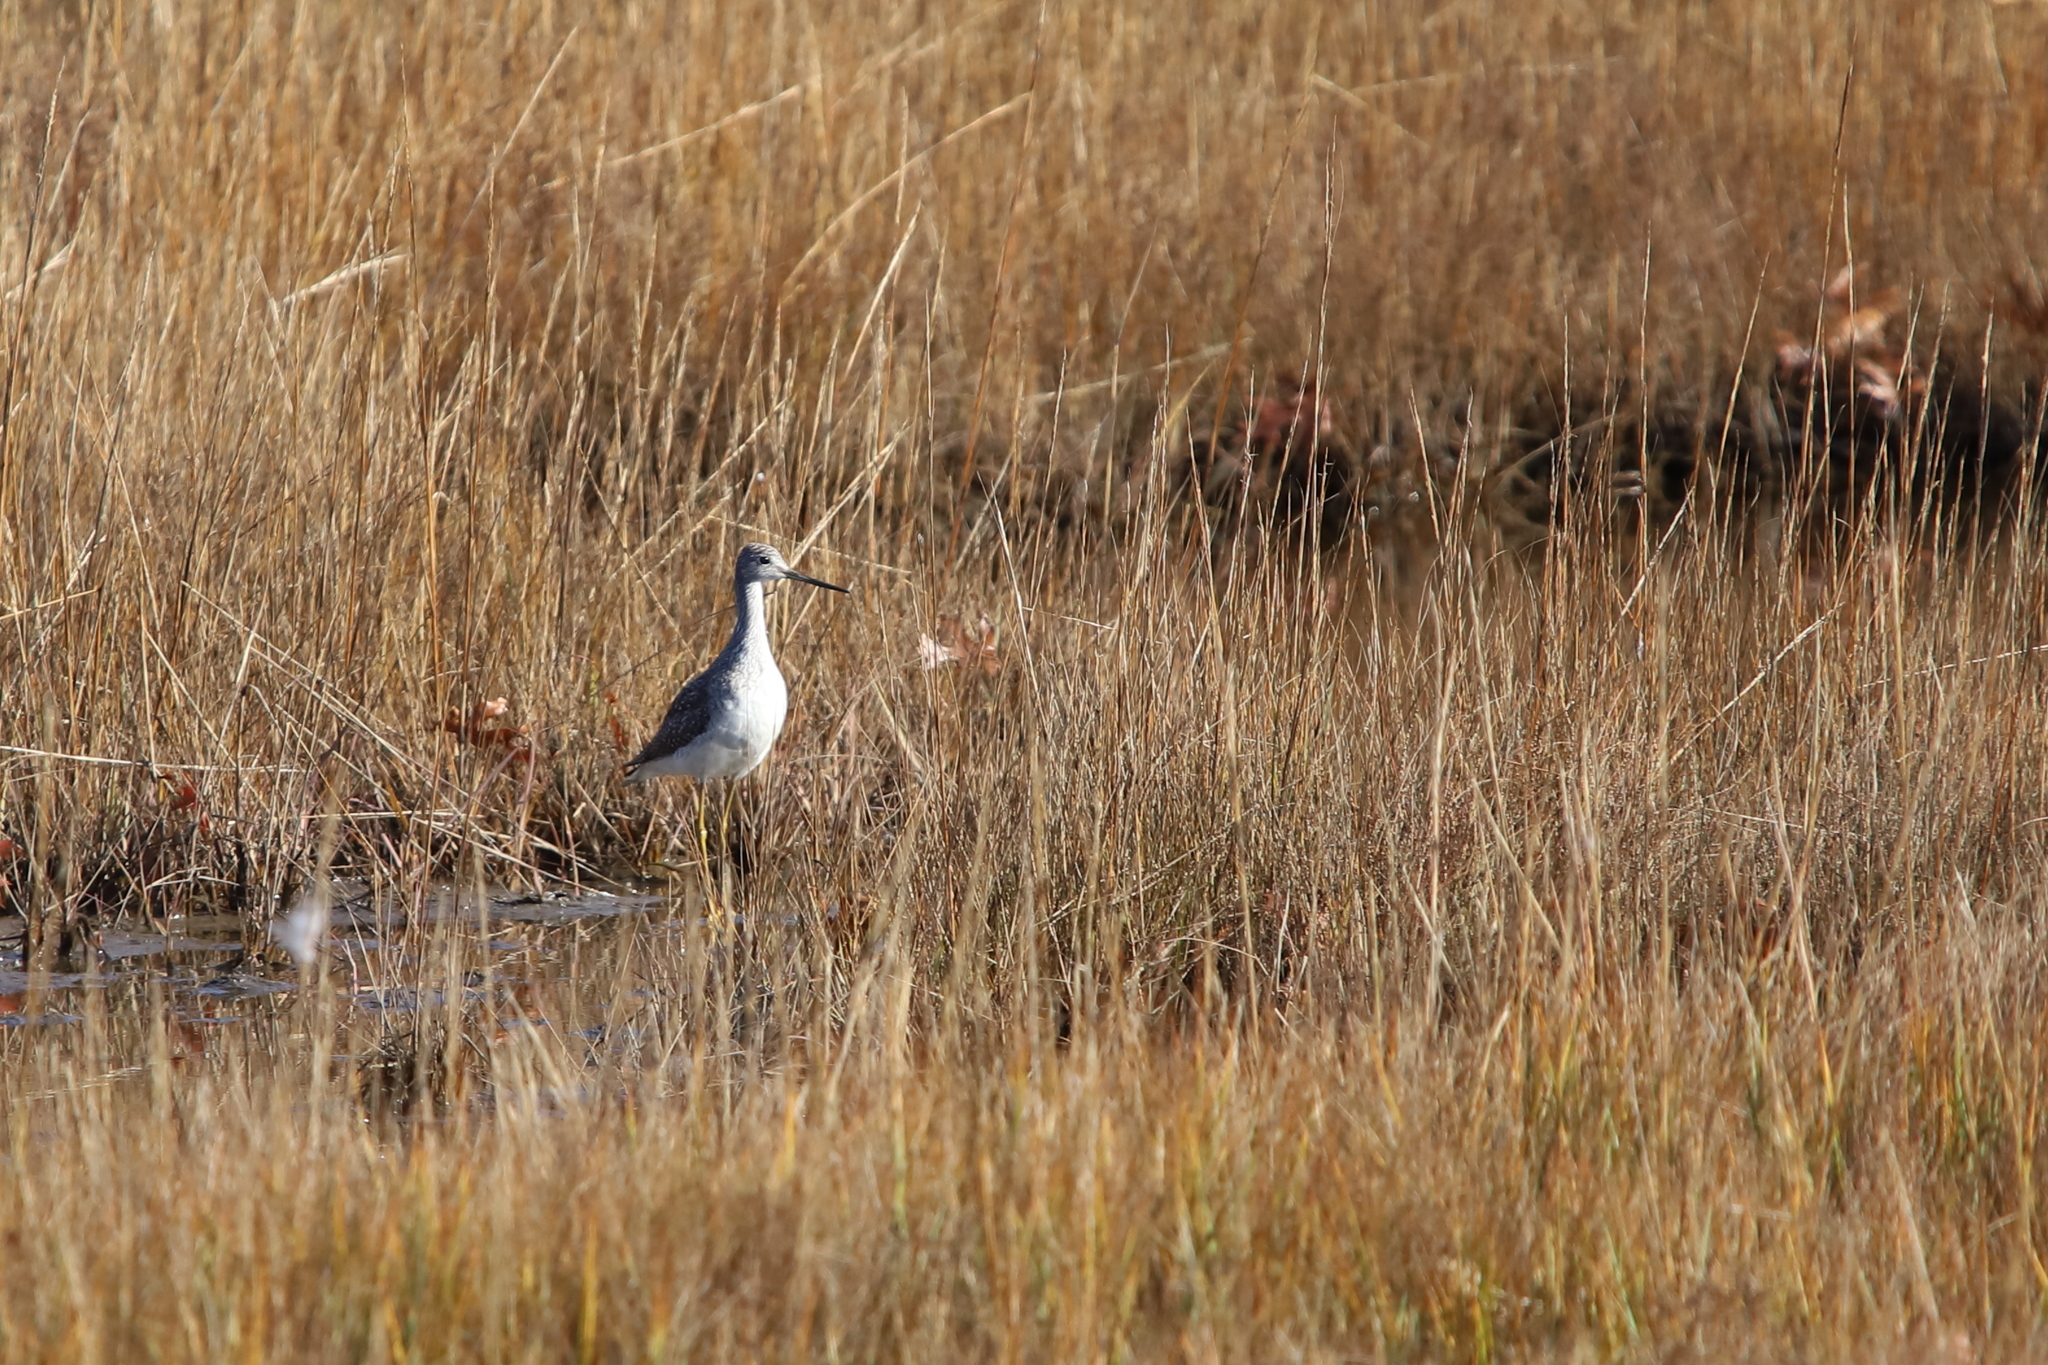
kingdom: Animalia
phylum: Chordata
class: Aves
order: Charadriiformes
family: Scolopacidae
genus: Tringa
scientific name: Tringa melanoleuca
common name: Greater yellowlegs
